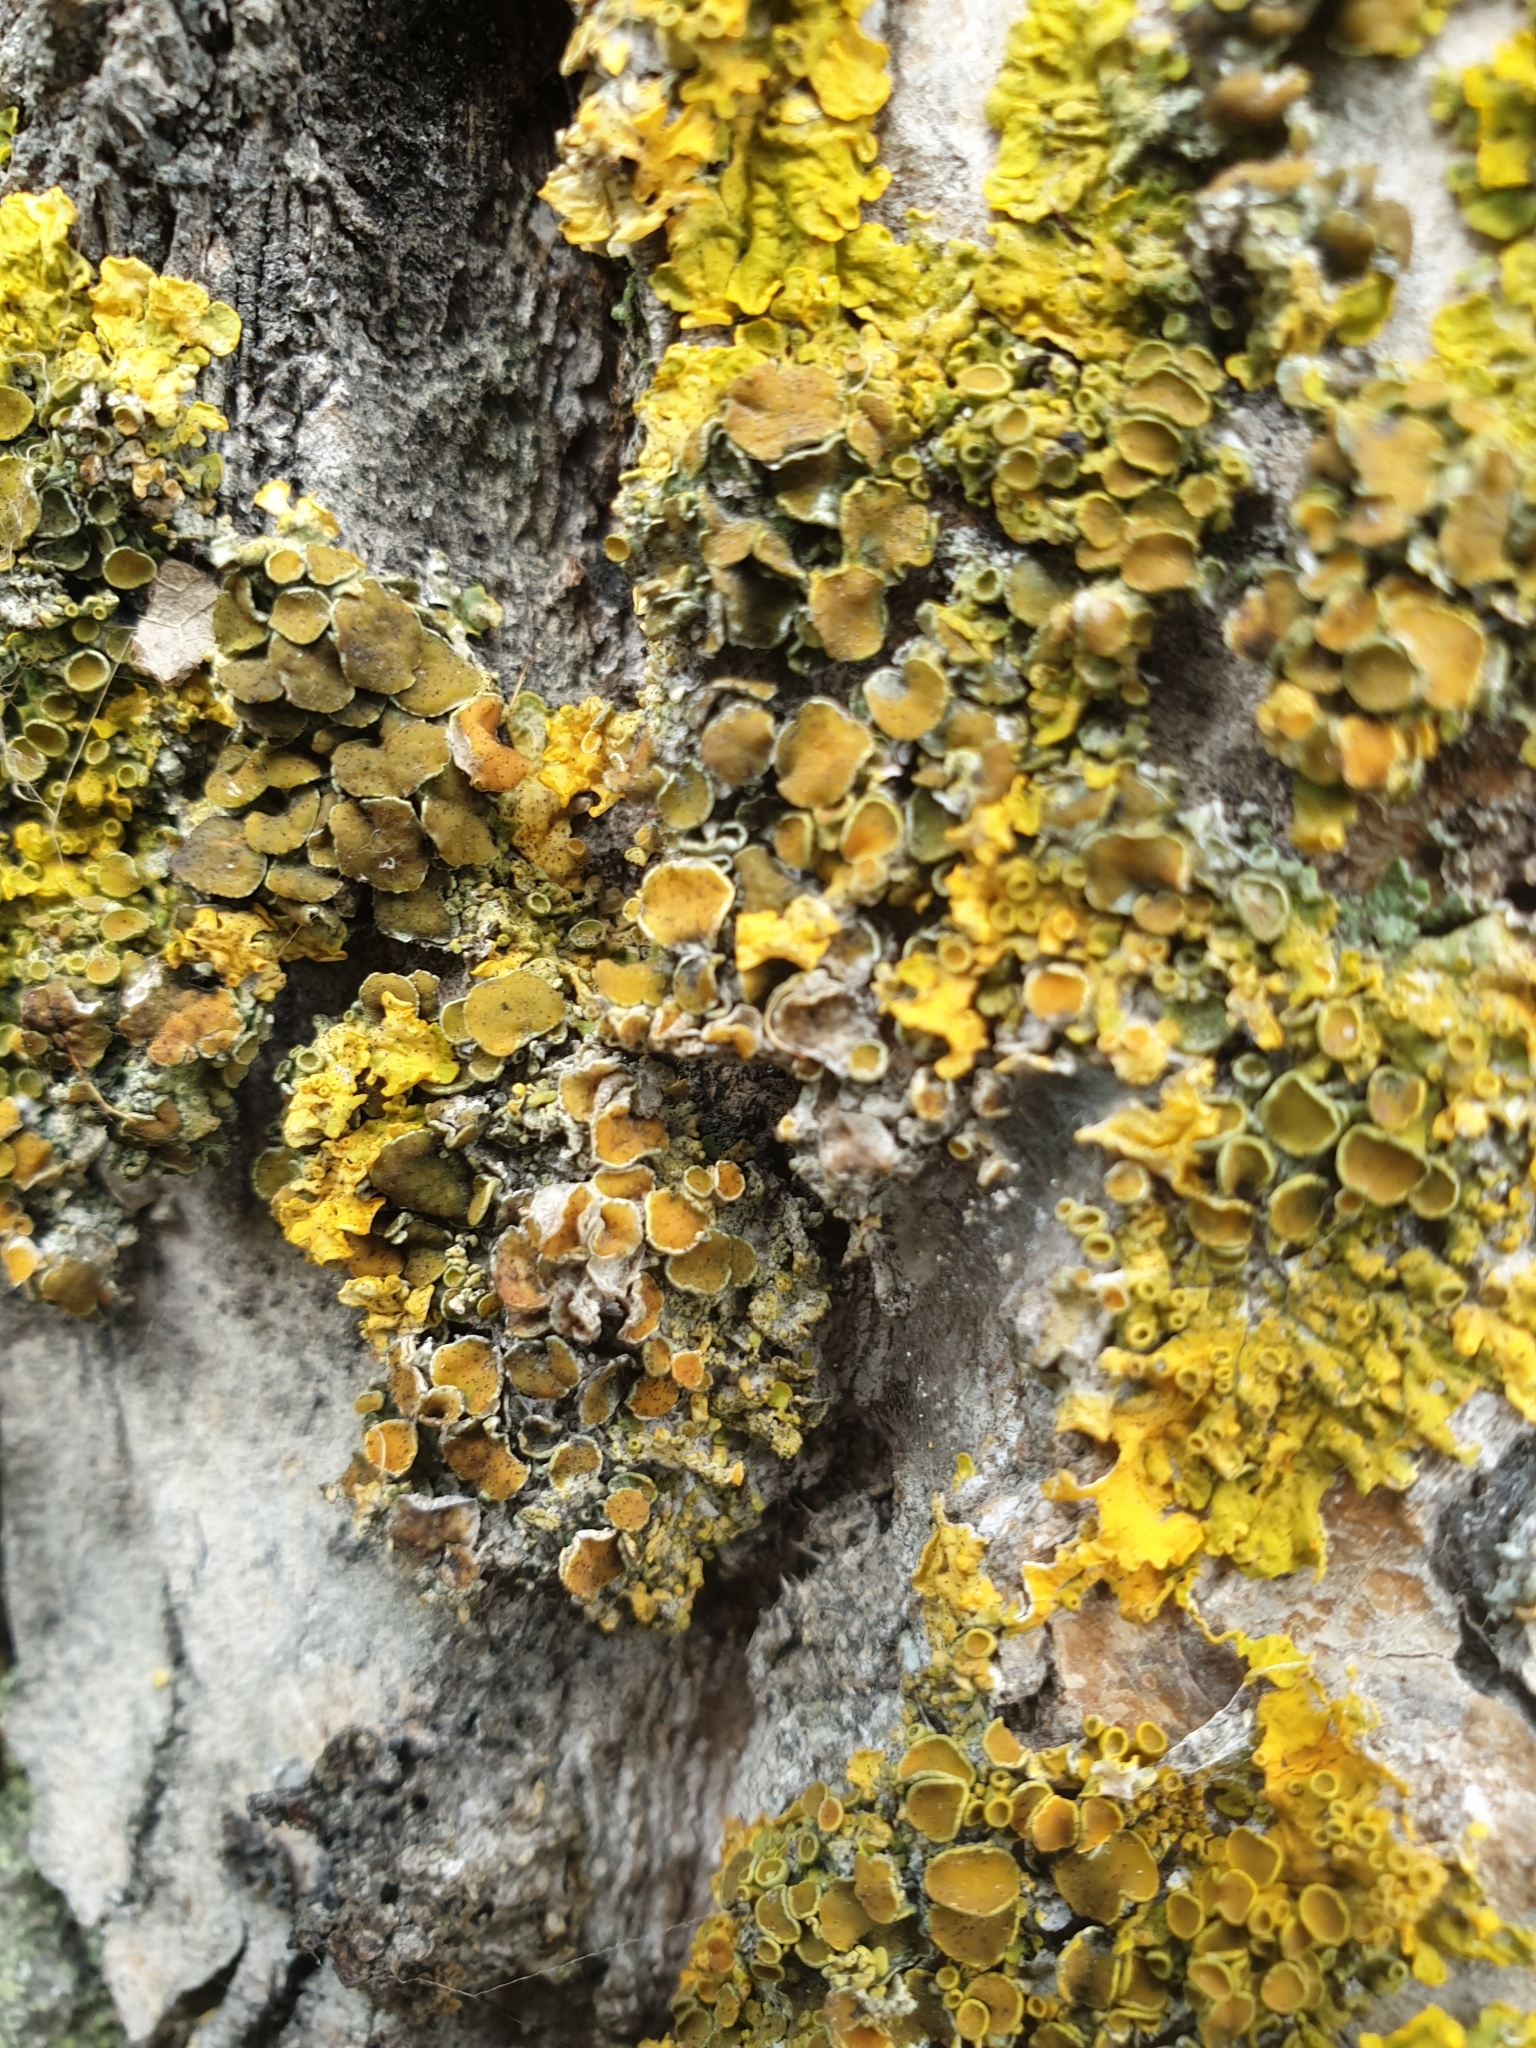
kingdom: Fungi
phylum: Ascomycota
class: Lecanoromycetes
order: Teloschistales
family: Teloschistaceae
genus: Xanthoria
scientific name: Xanthoria parietina
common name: Common orange lichen
